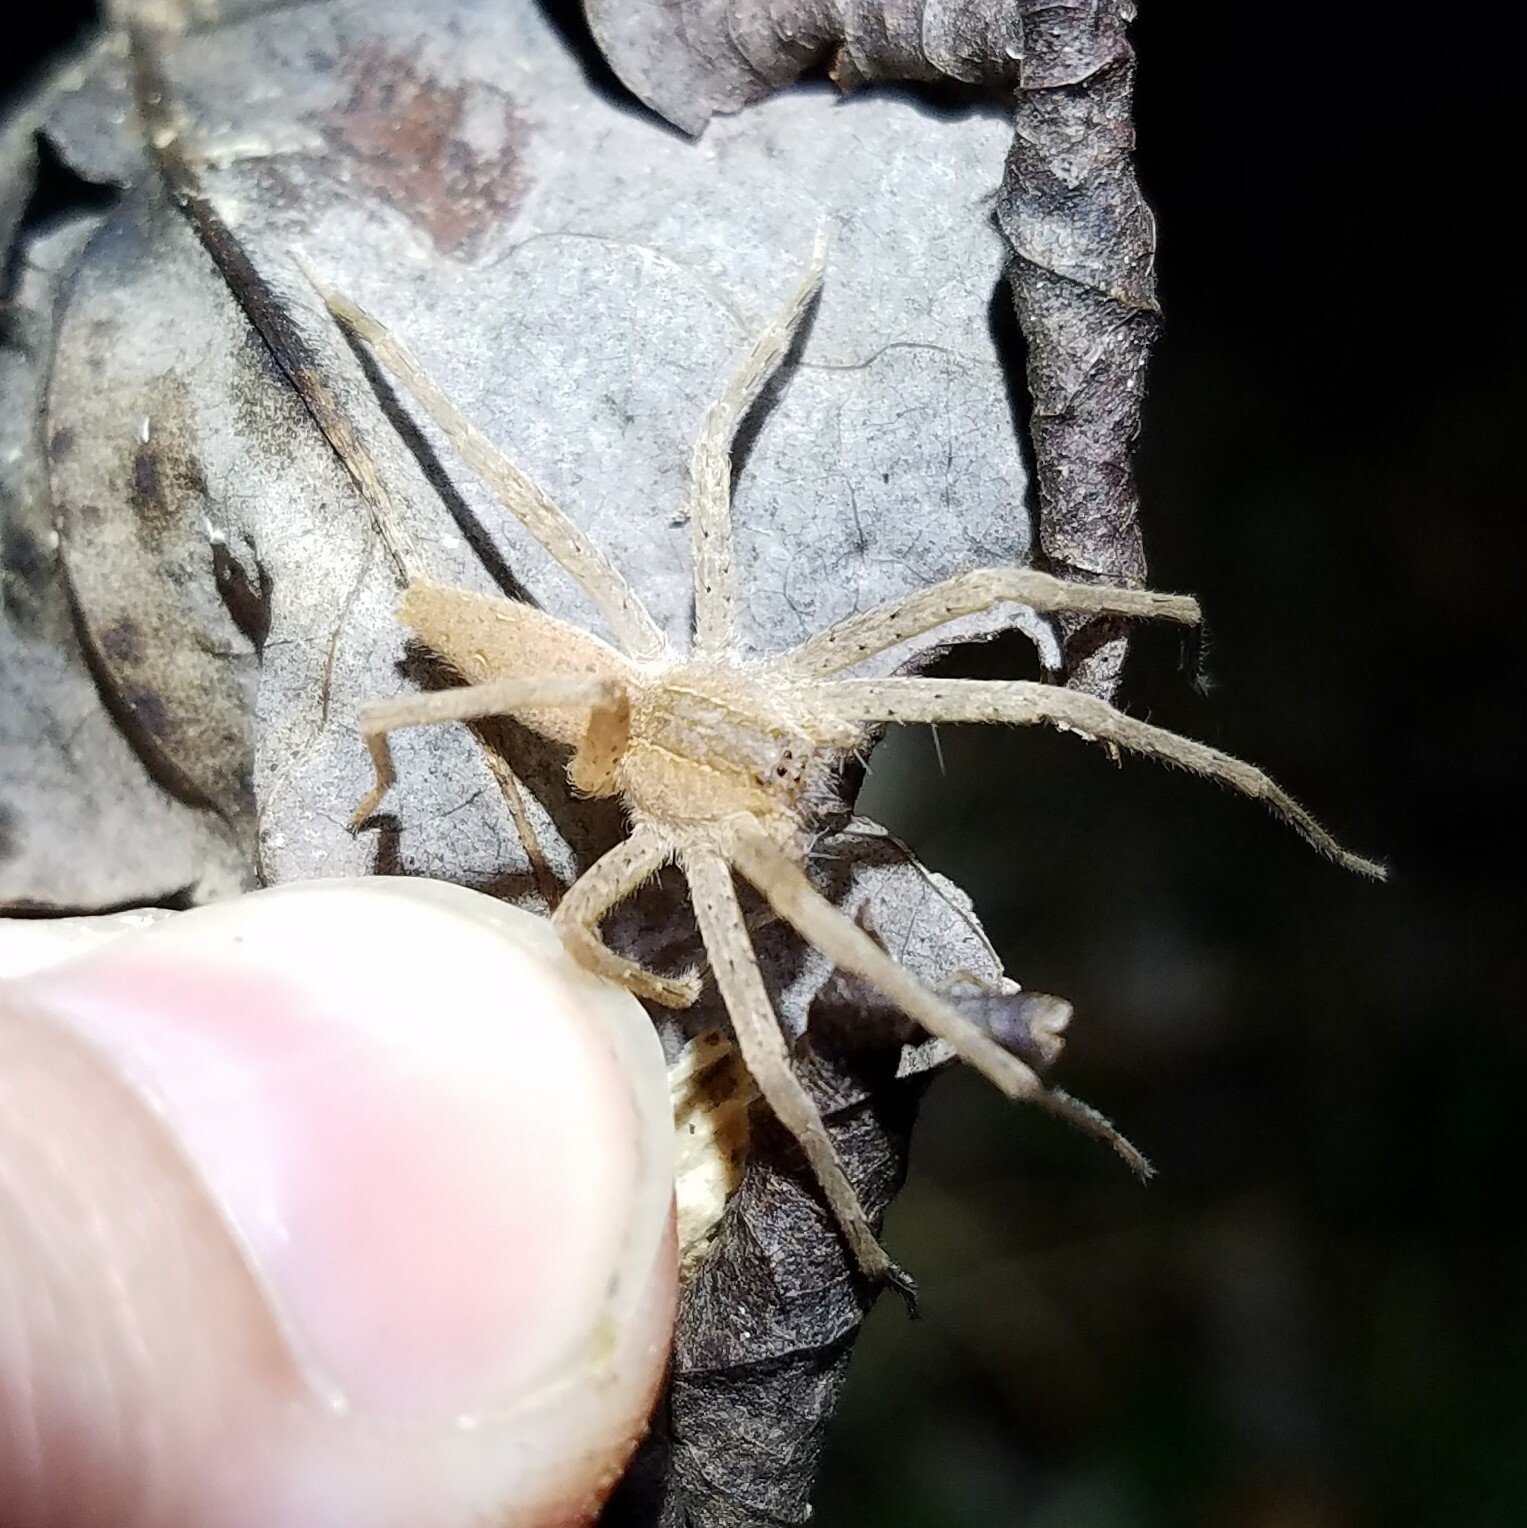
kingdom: Animalia
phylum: Arthropoda
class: Arachnida
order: Araneae
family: Pisauridae
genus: Pisaurina
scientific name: Pisaurina mira
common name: American nursery web spider
